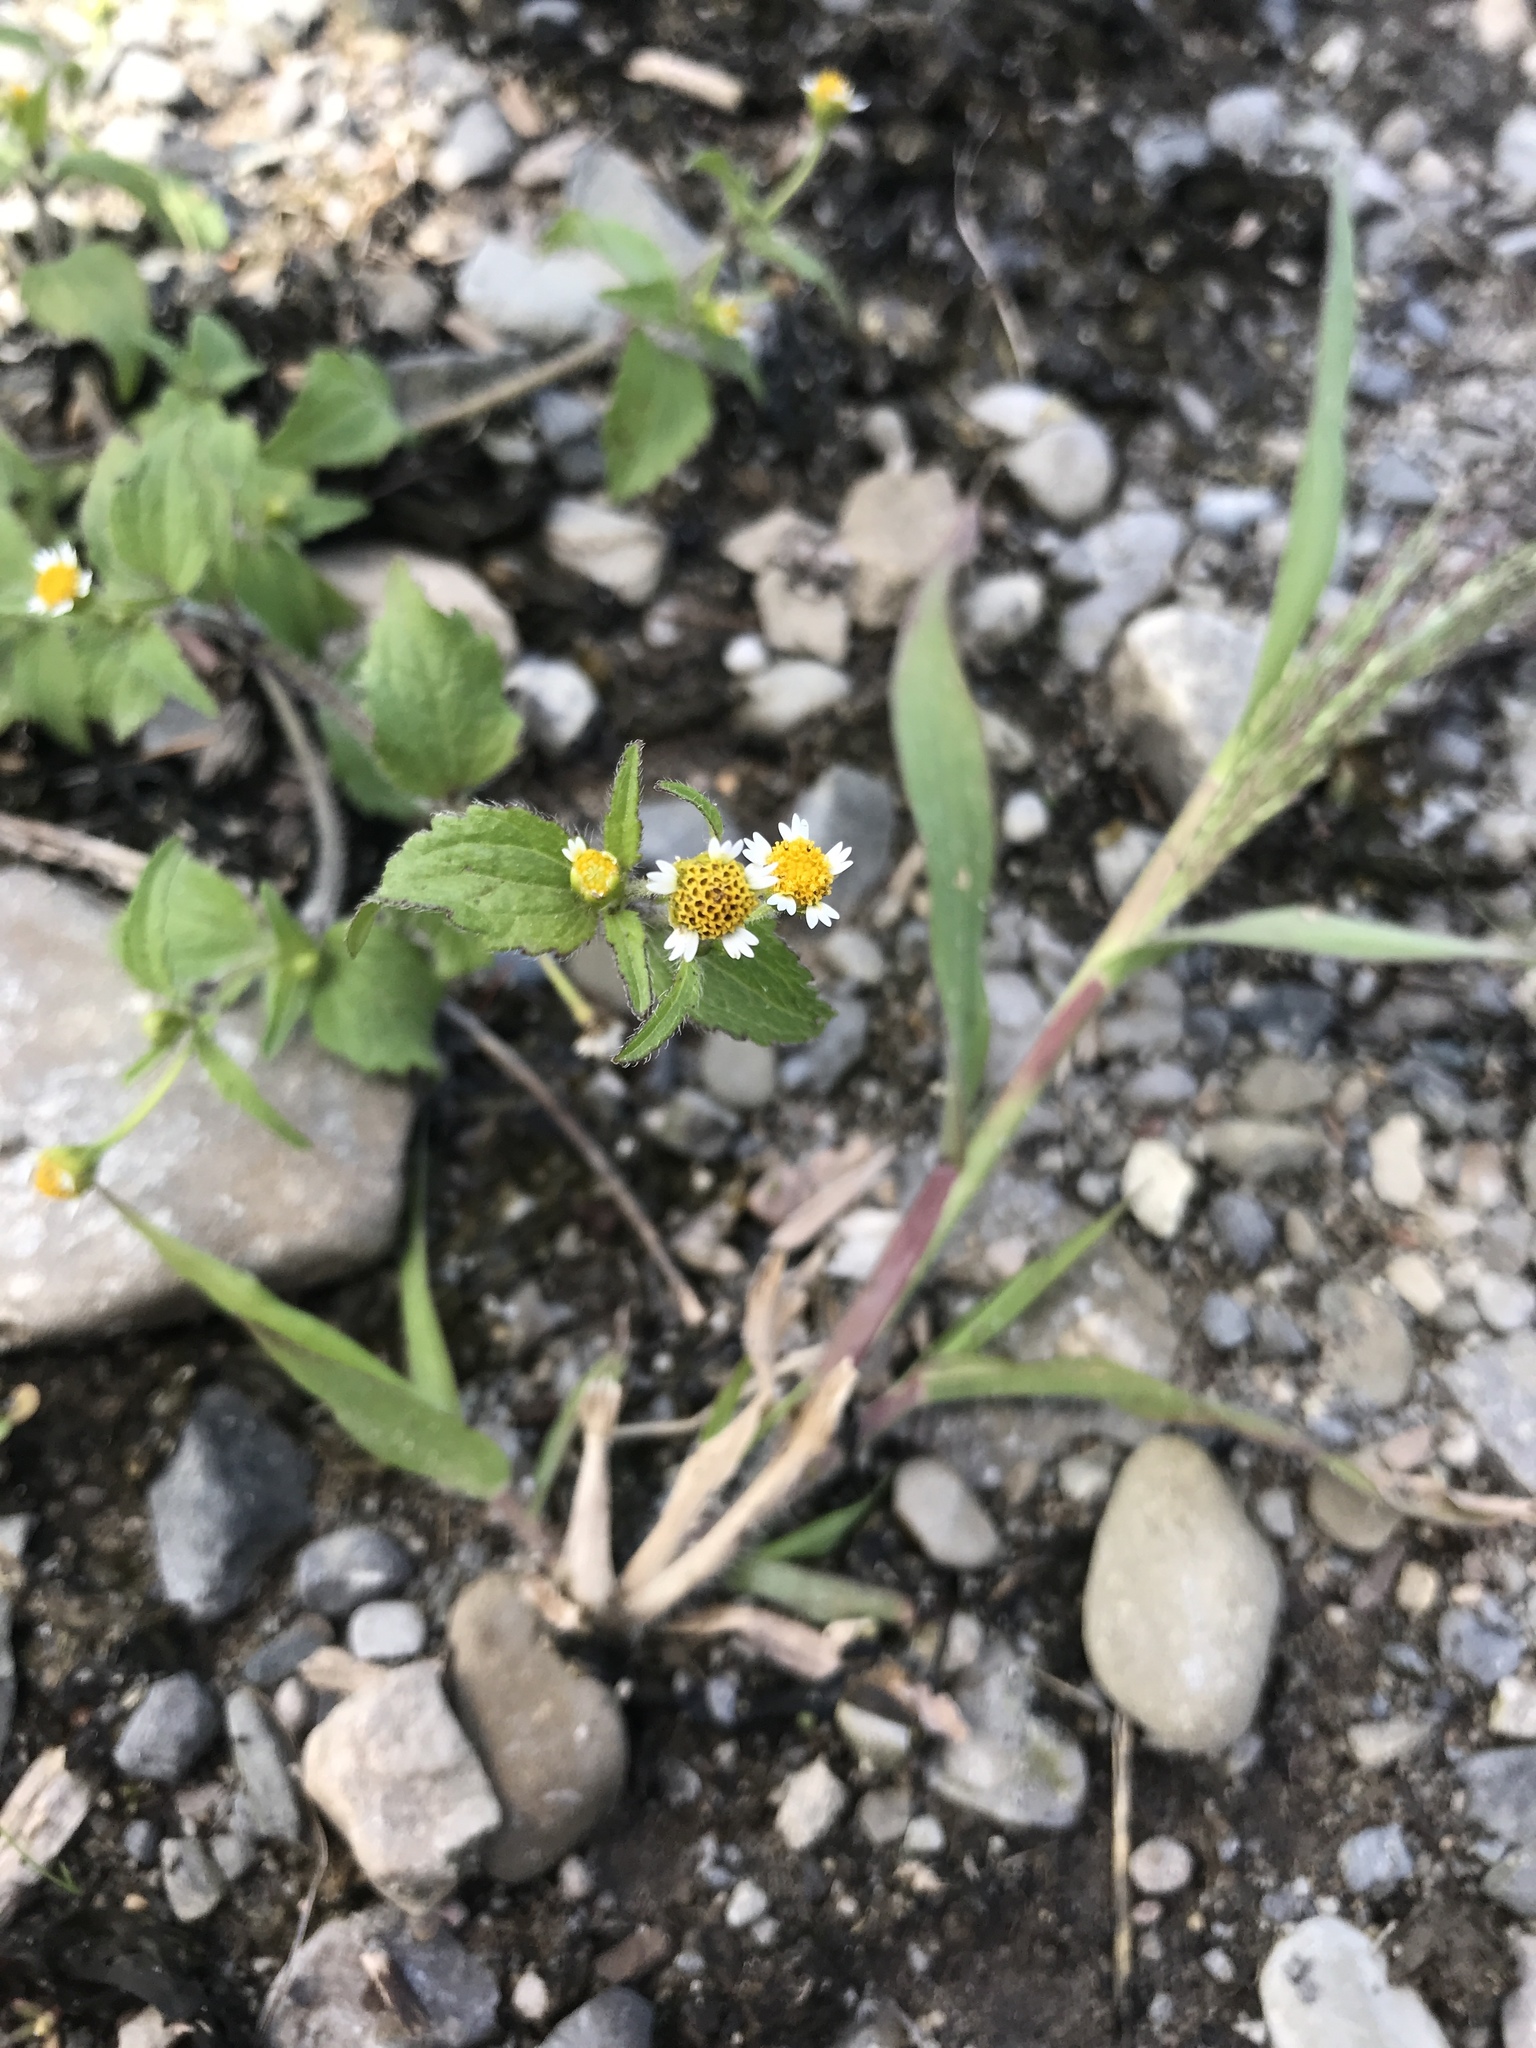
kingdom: Plantae
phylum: Tracheophyta
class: Magnoliopsida
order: Asterales
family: Asteraceae
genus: Galinsoga
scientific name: Galinsoga quadriradiata
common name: Shaggy soldier
